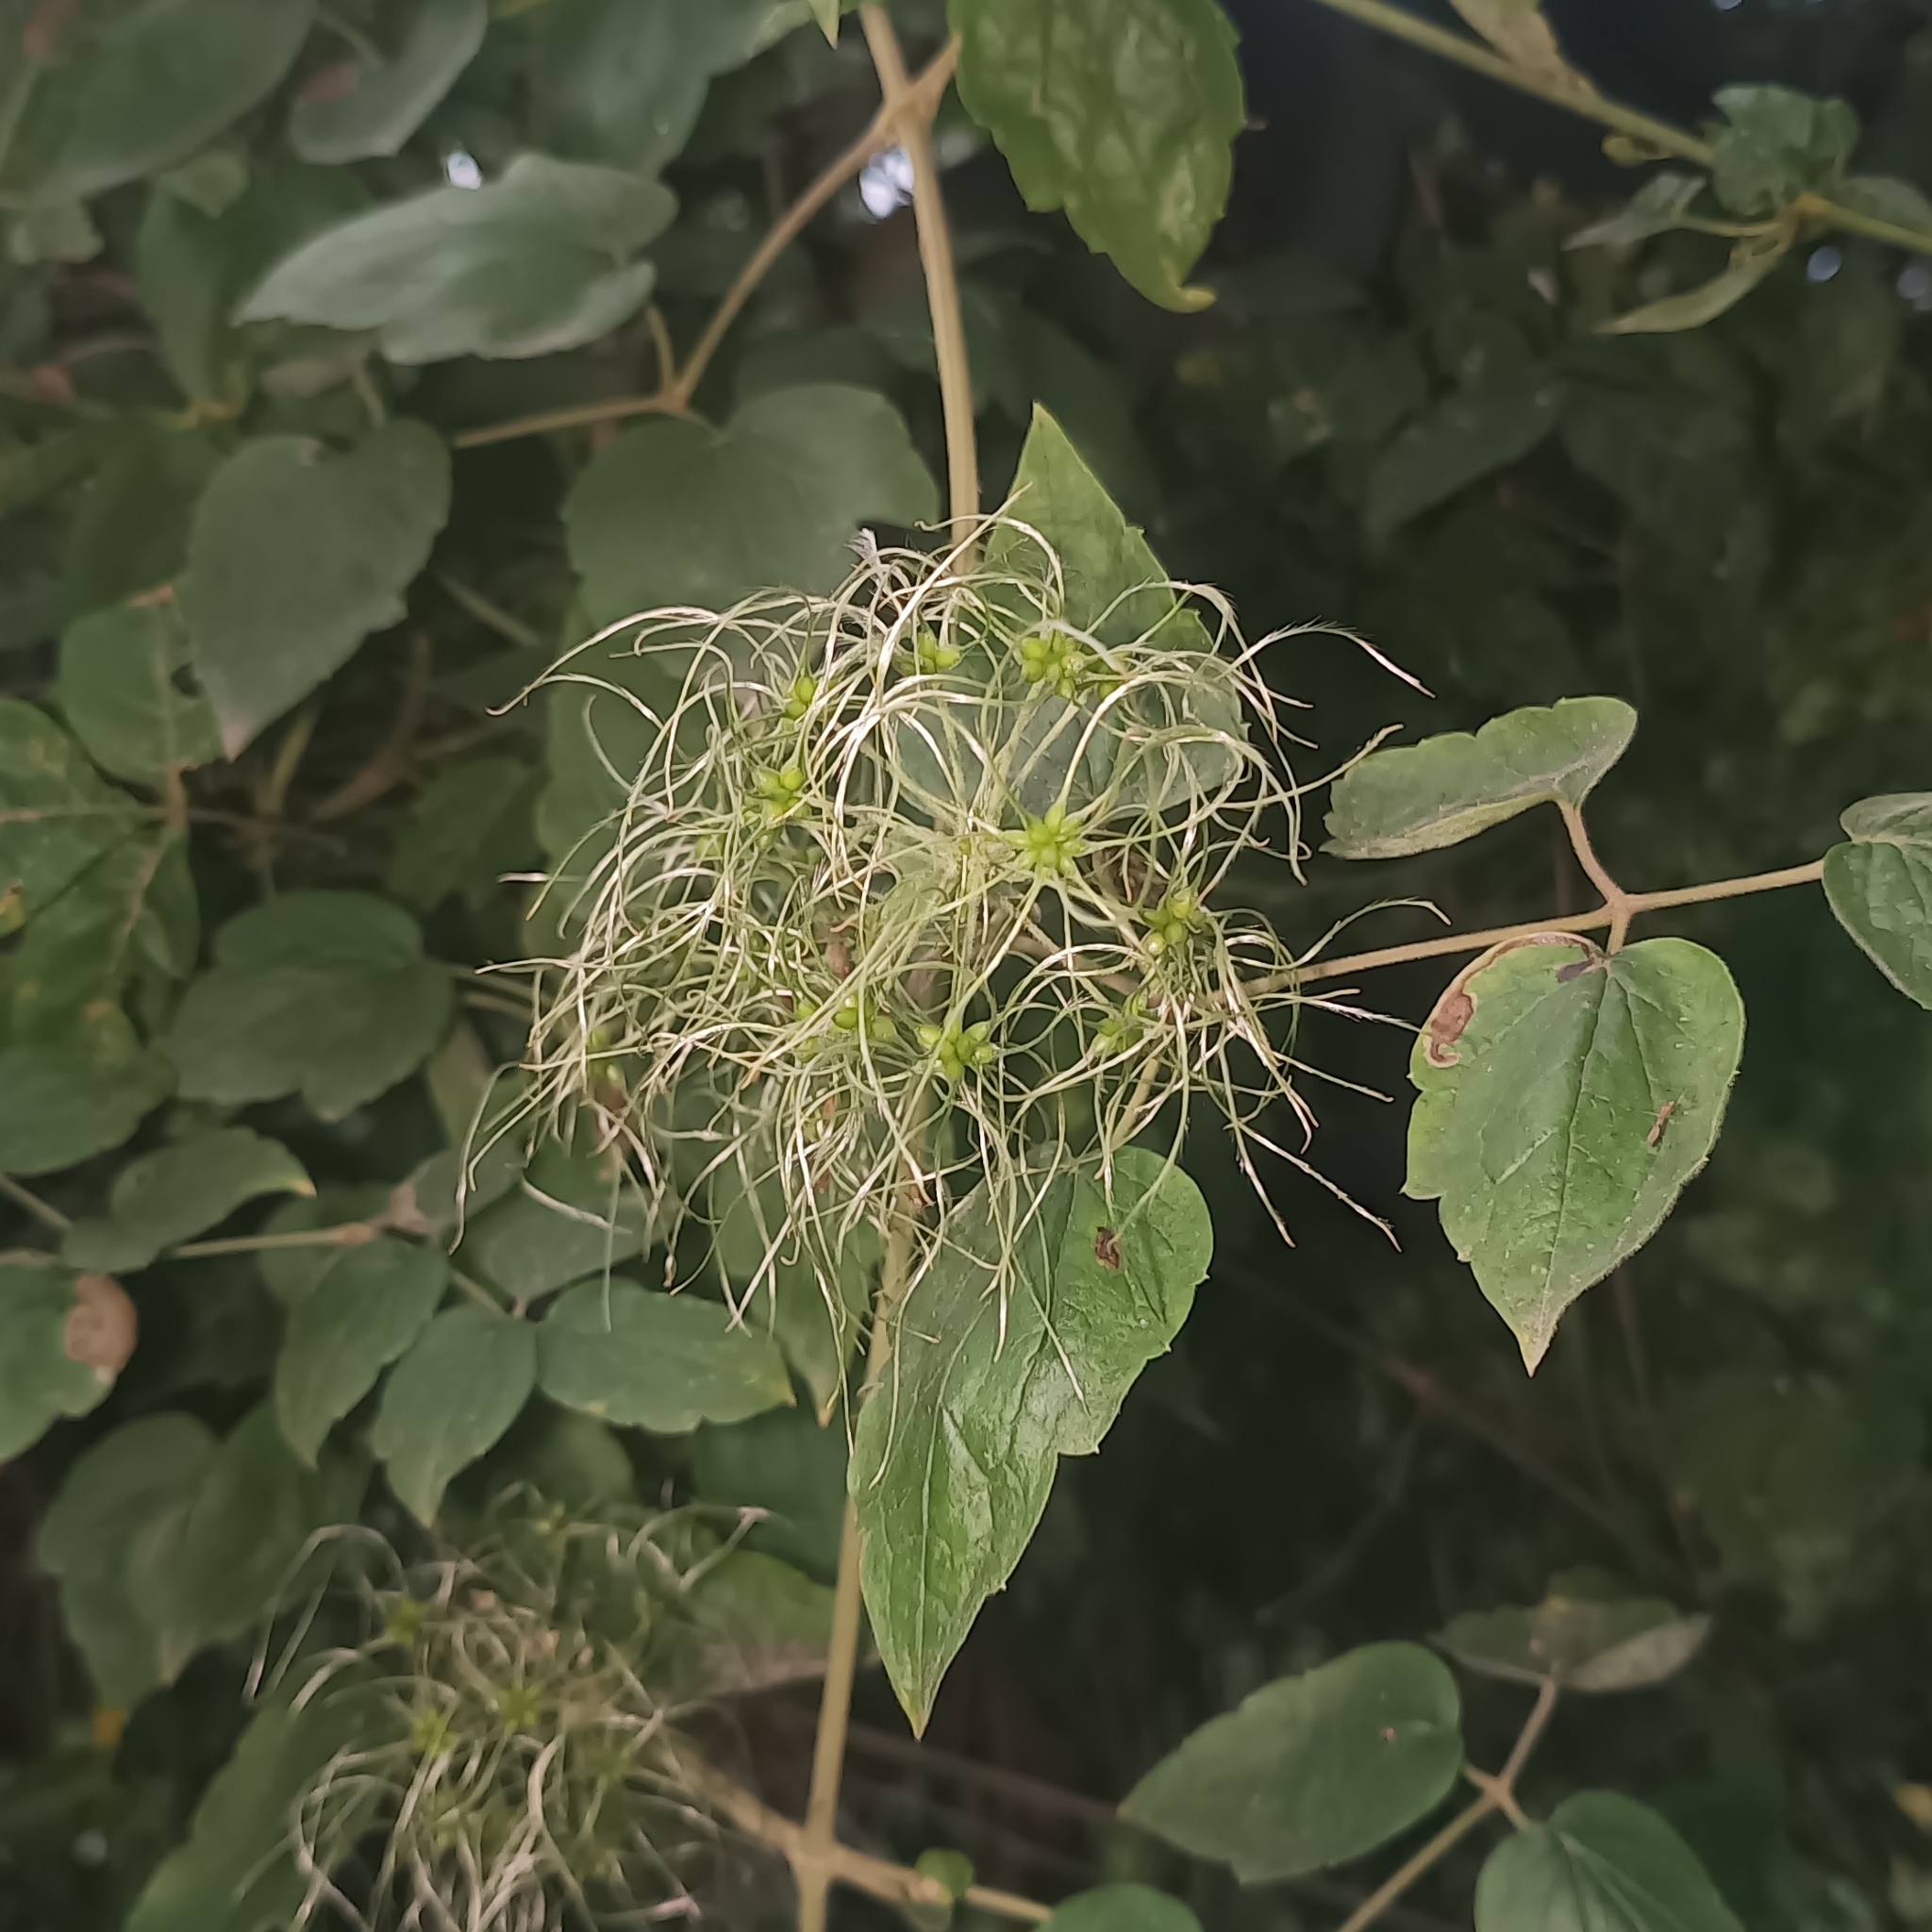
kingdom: Plantae
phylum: Tracheophyta
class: Magnoliopsida
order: Ranunculales
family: Ranunculaceae
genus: Clematis
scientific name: Clematis dioica
